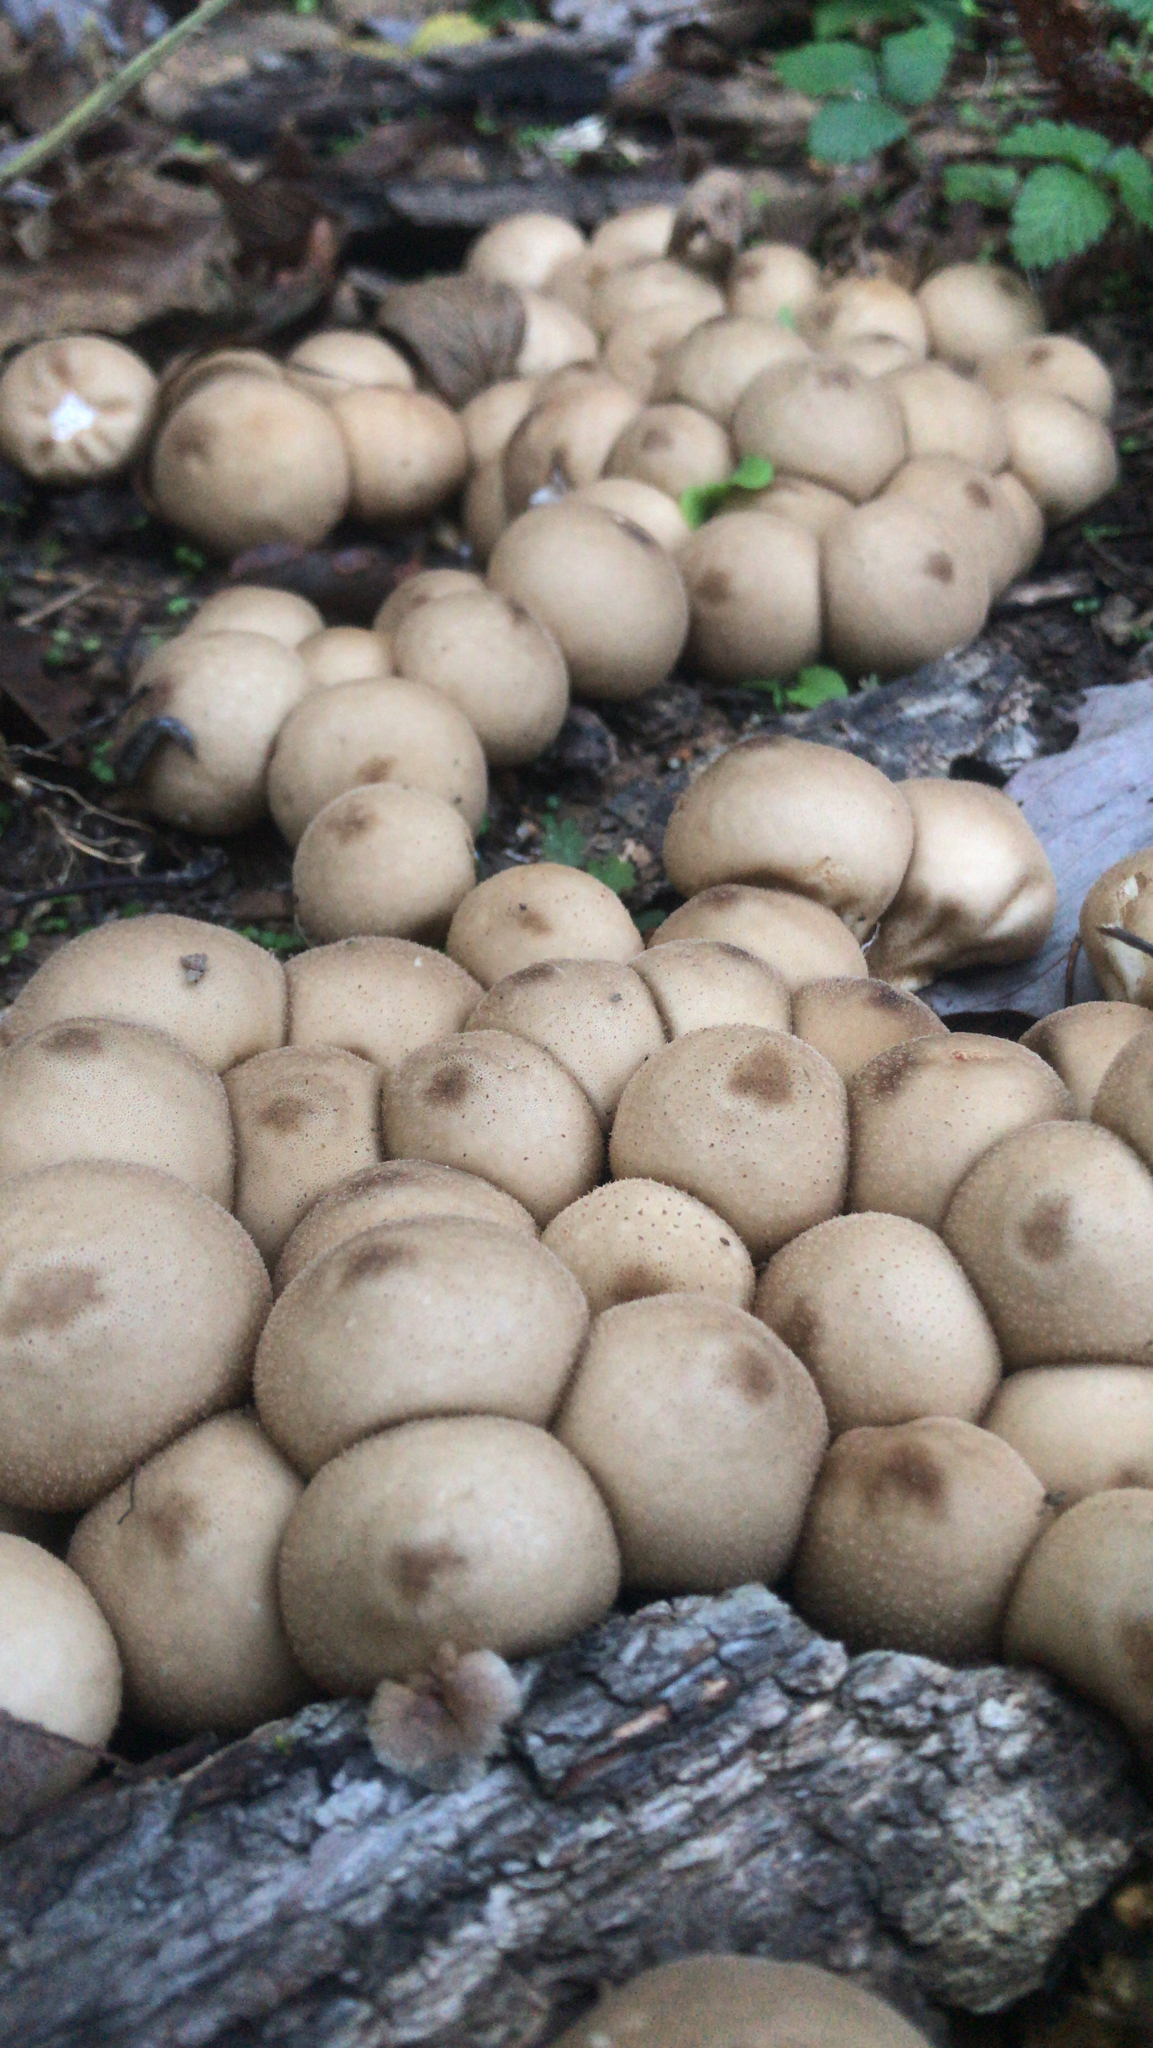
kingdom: Fungi
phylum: Basidiomycota
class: Agaricomycetes
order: Agaricales
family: Lycoperdaceae
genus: Apioperdon
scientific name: Apioperdon pyriforme
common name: Pear-shaped puffball
